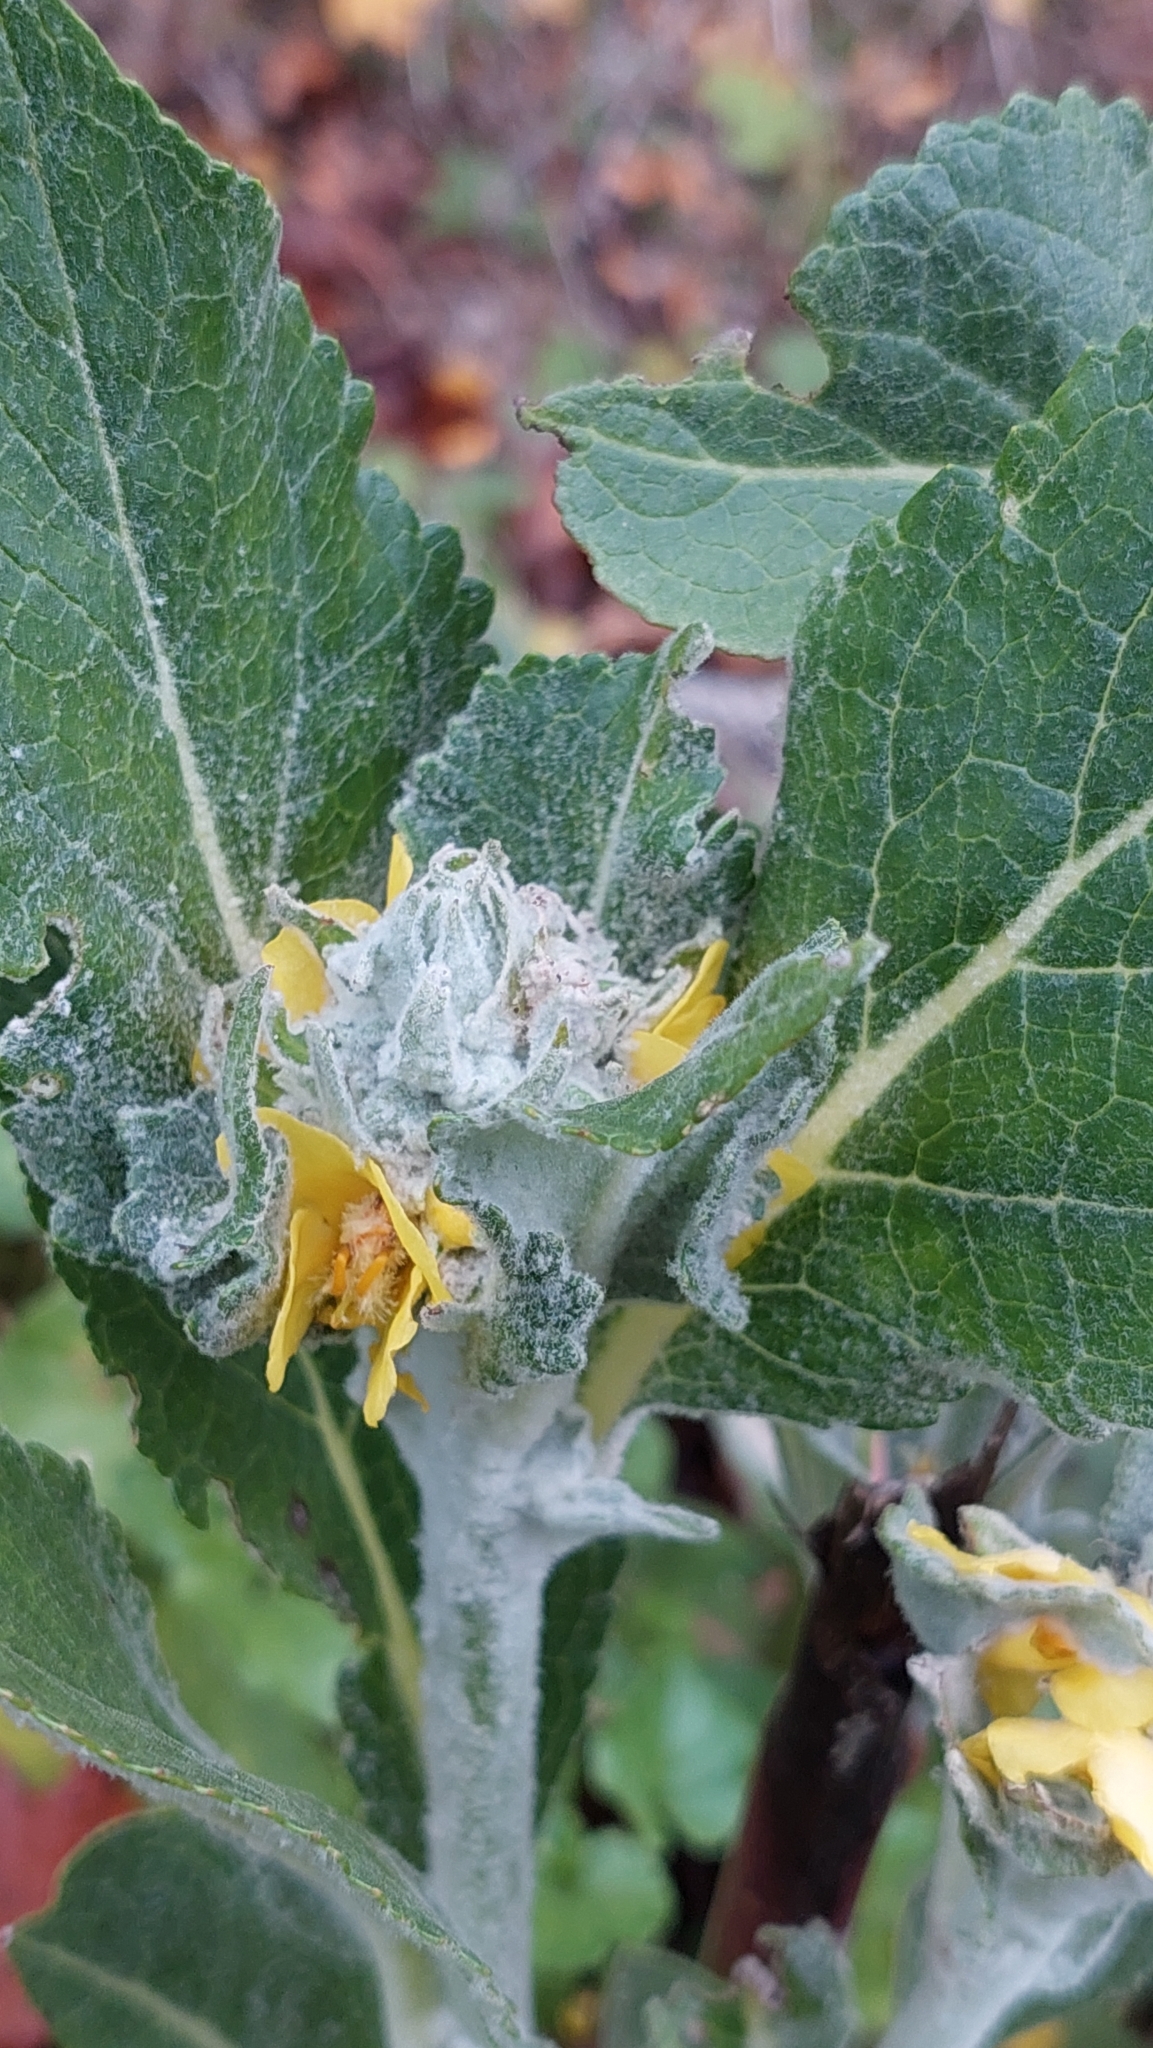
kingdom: Plantae
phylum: Tracheophyta
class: Magnoliopsida
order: Lamiales
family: Scrophulariaceae
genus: Verbascum
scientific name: Verbascum gnaphalodes
